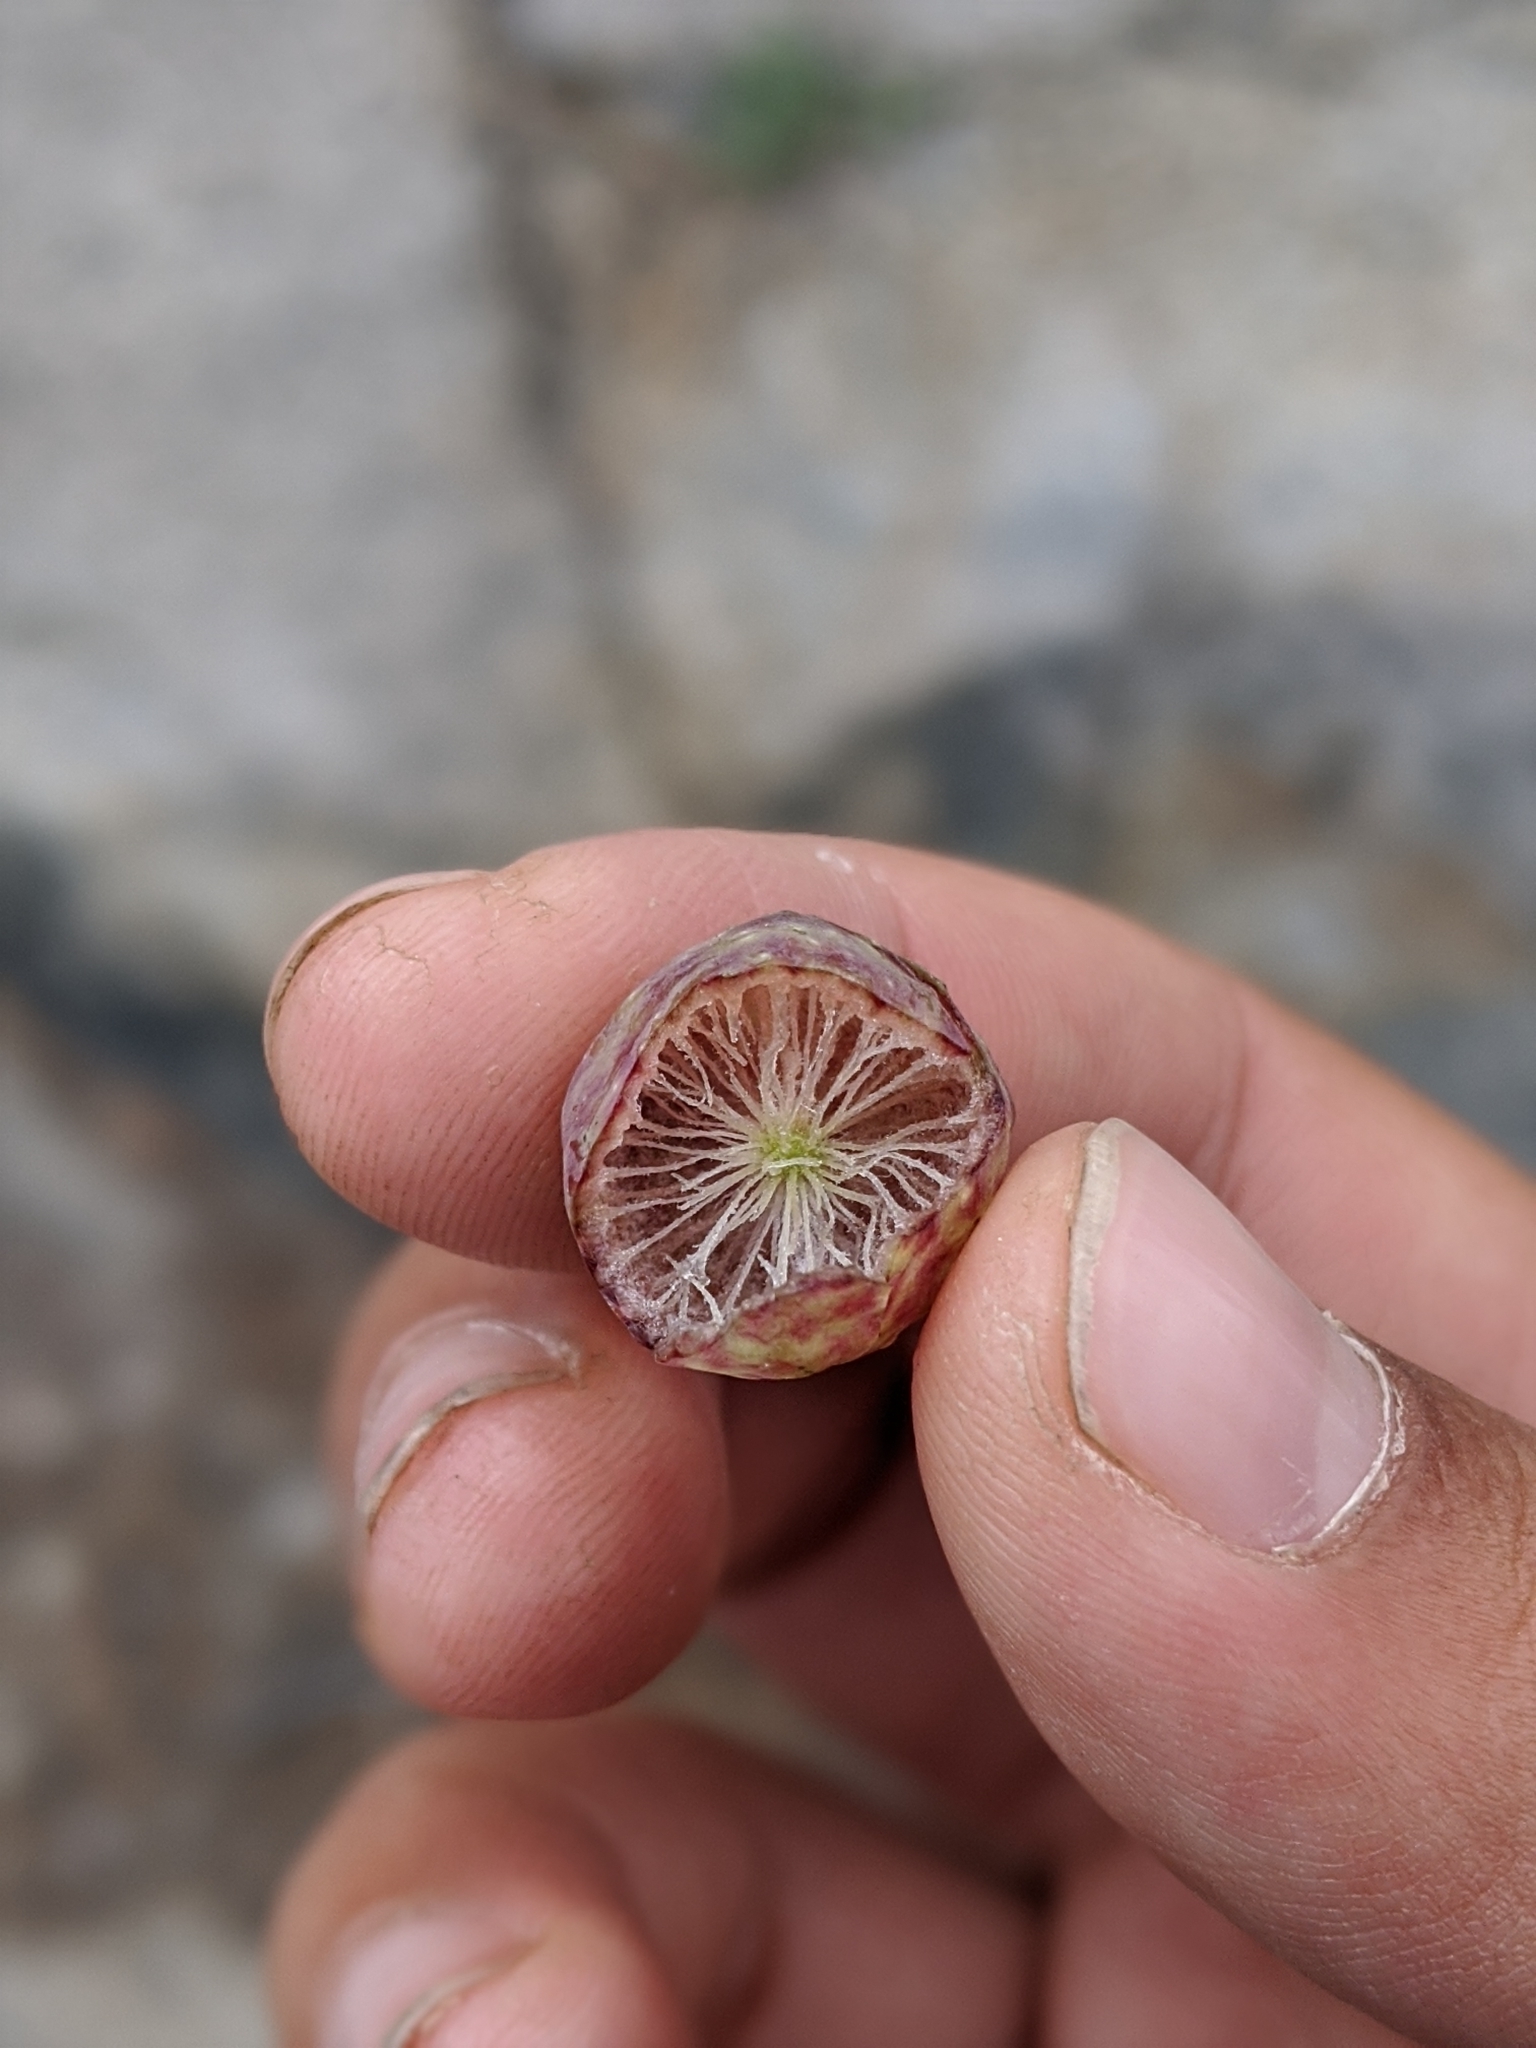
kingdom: Animalia
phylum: Arthropoda
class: Insecta
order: Hymenoptera
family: Cynipidae
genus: Andricus
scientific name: Andricus
